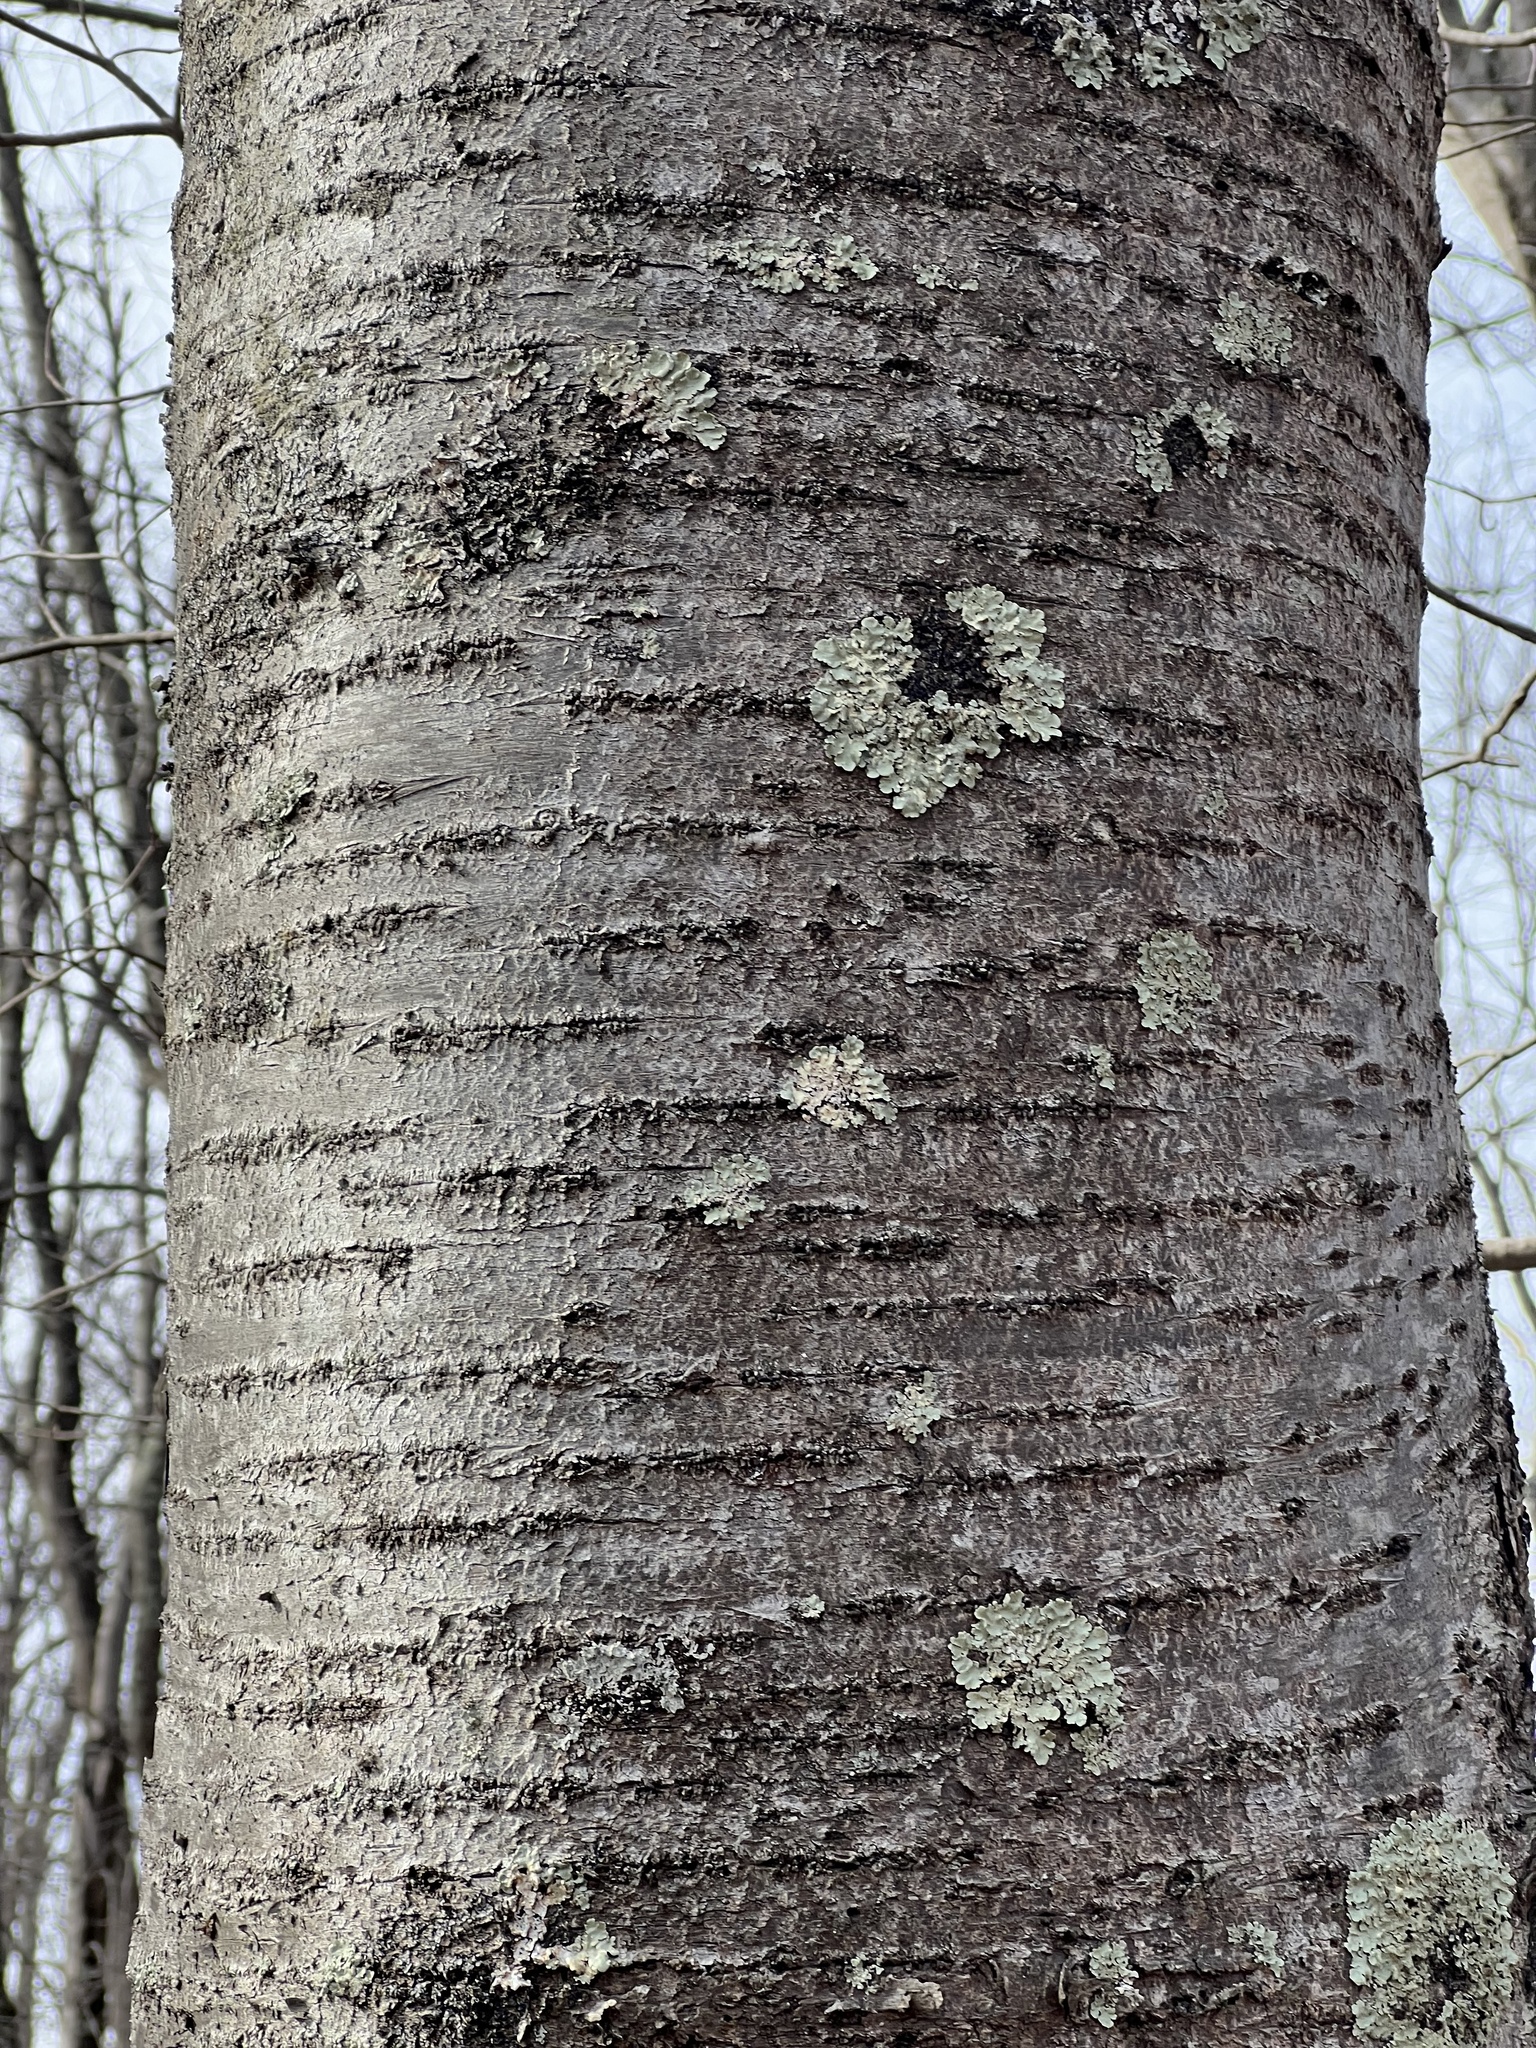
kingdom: Plantae
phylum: Tracheophyta
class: Magnoliopsida
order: Rosales
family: Rosaceae
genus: Prunus
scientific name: Prunus avium
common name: Sweet cherry
